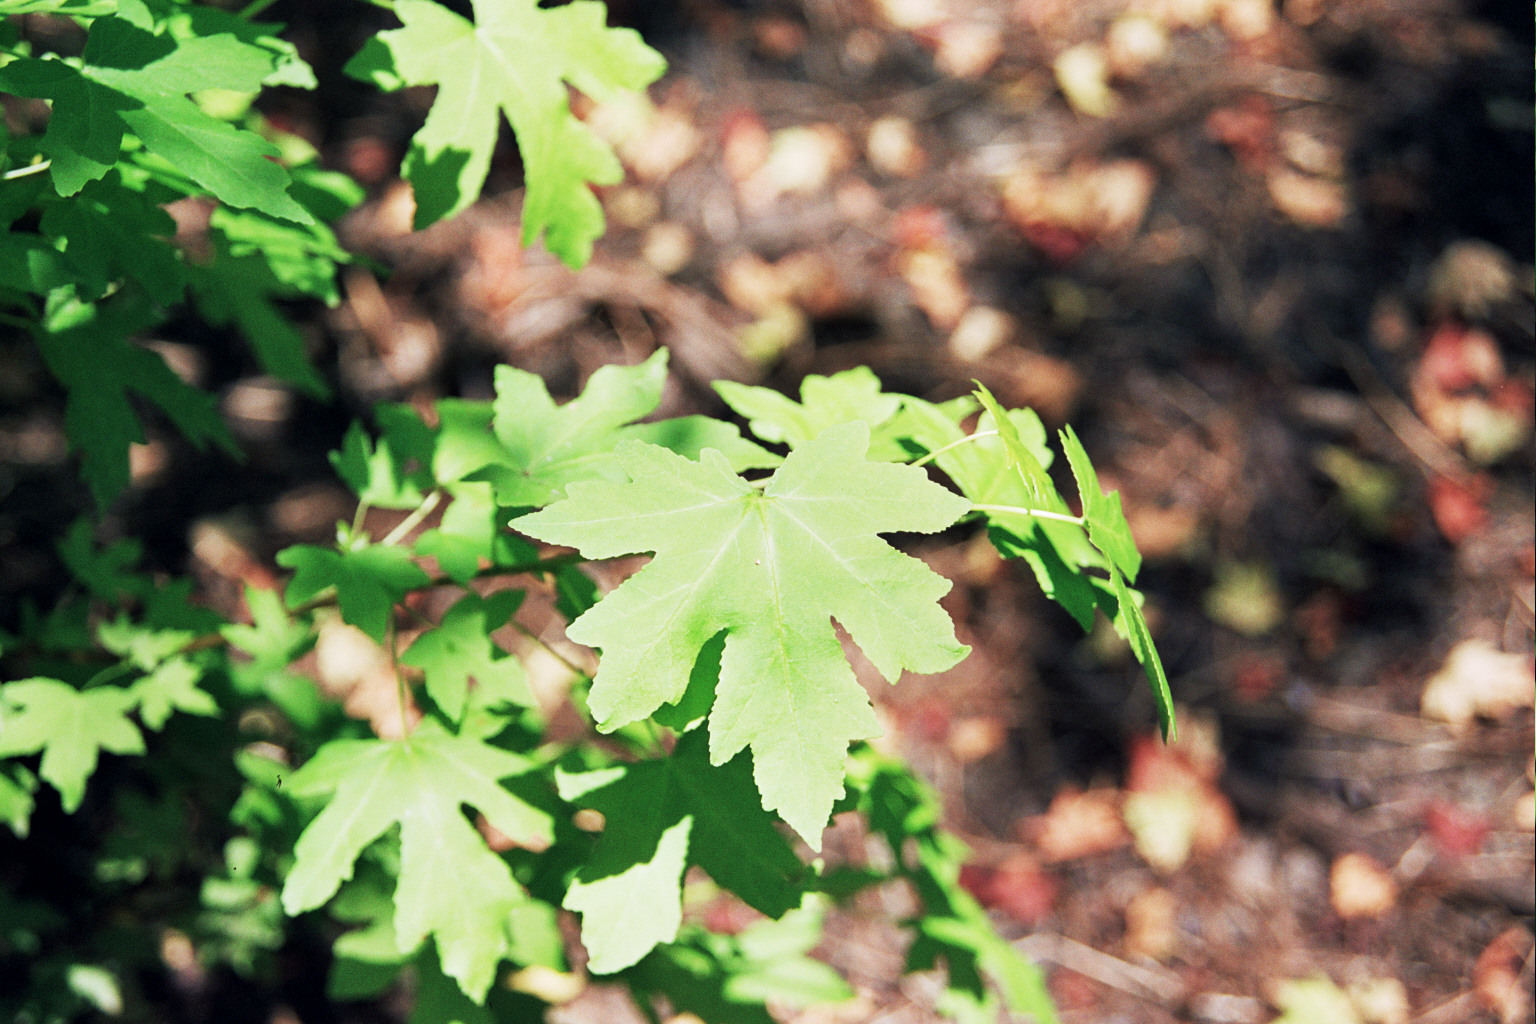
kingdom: Plantae
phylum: Tracheophyta
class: Magnoliopsida
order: Saxifragales
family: Altingiaceae
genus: Liquidambar
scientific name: Liquidambar orientalis
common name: Oriental sweetgum
